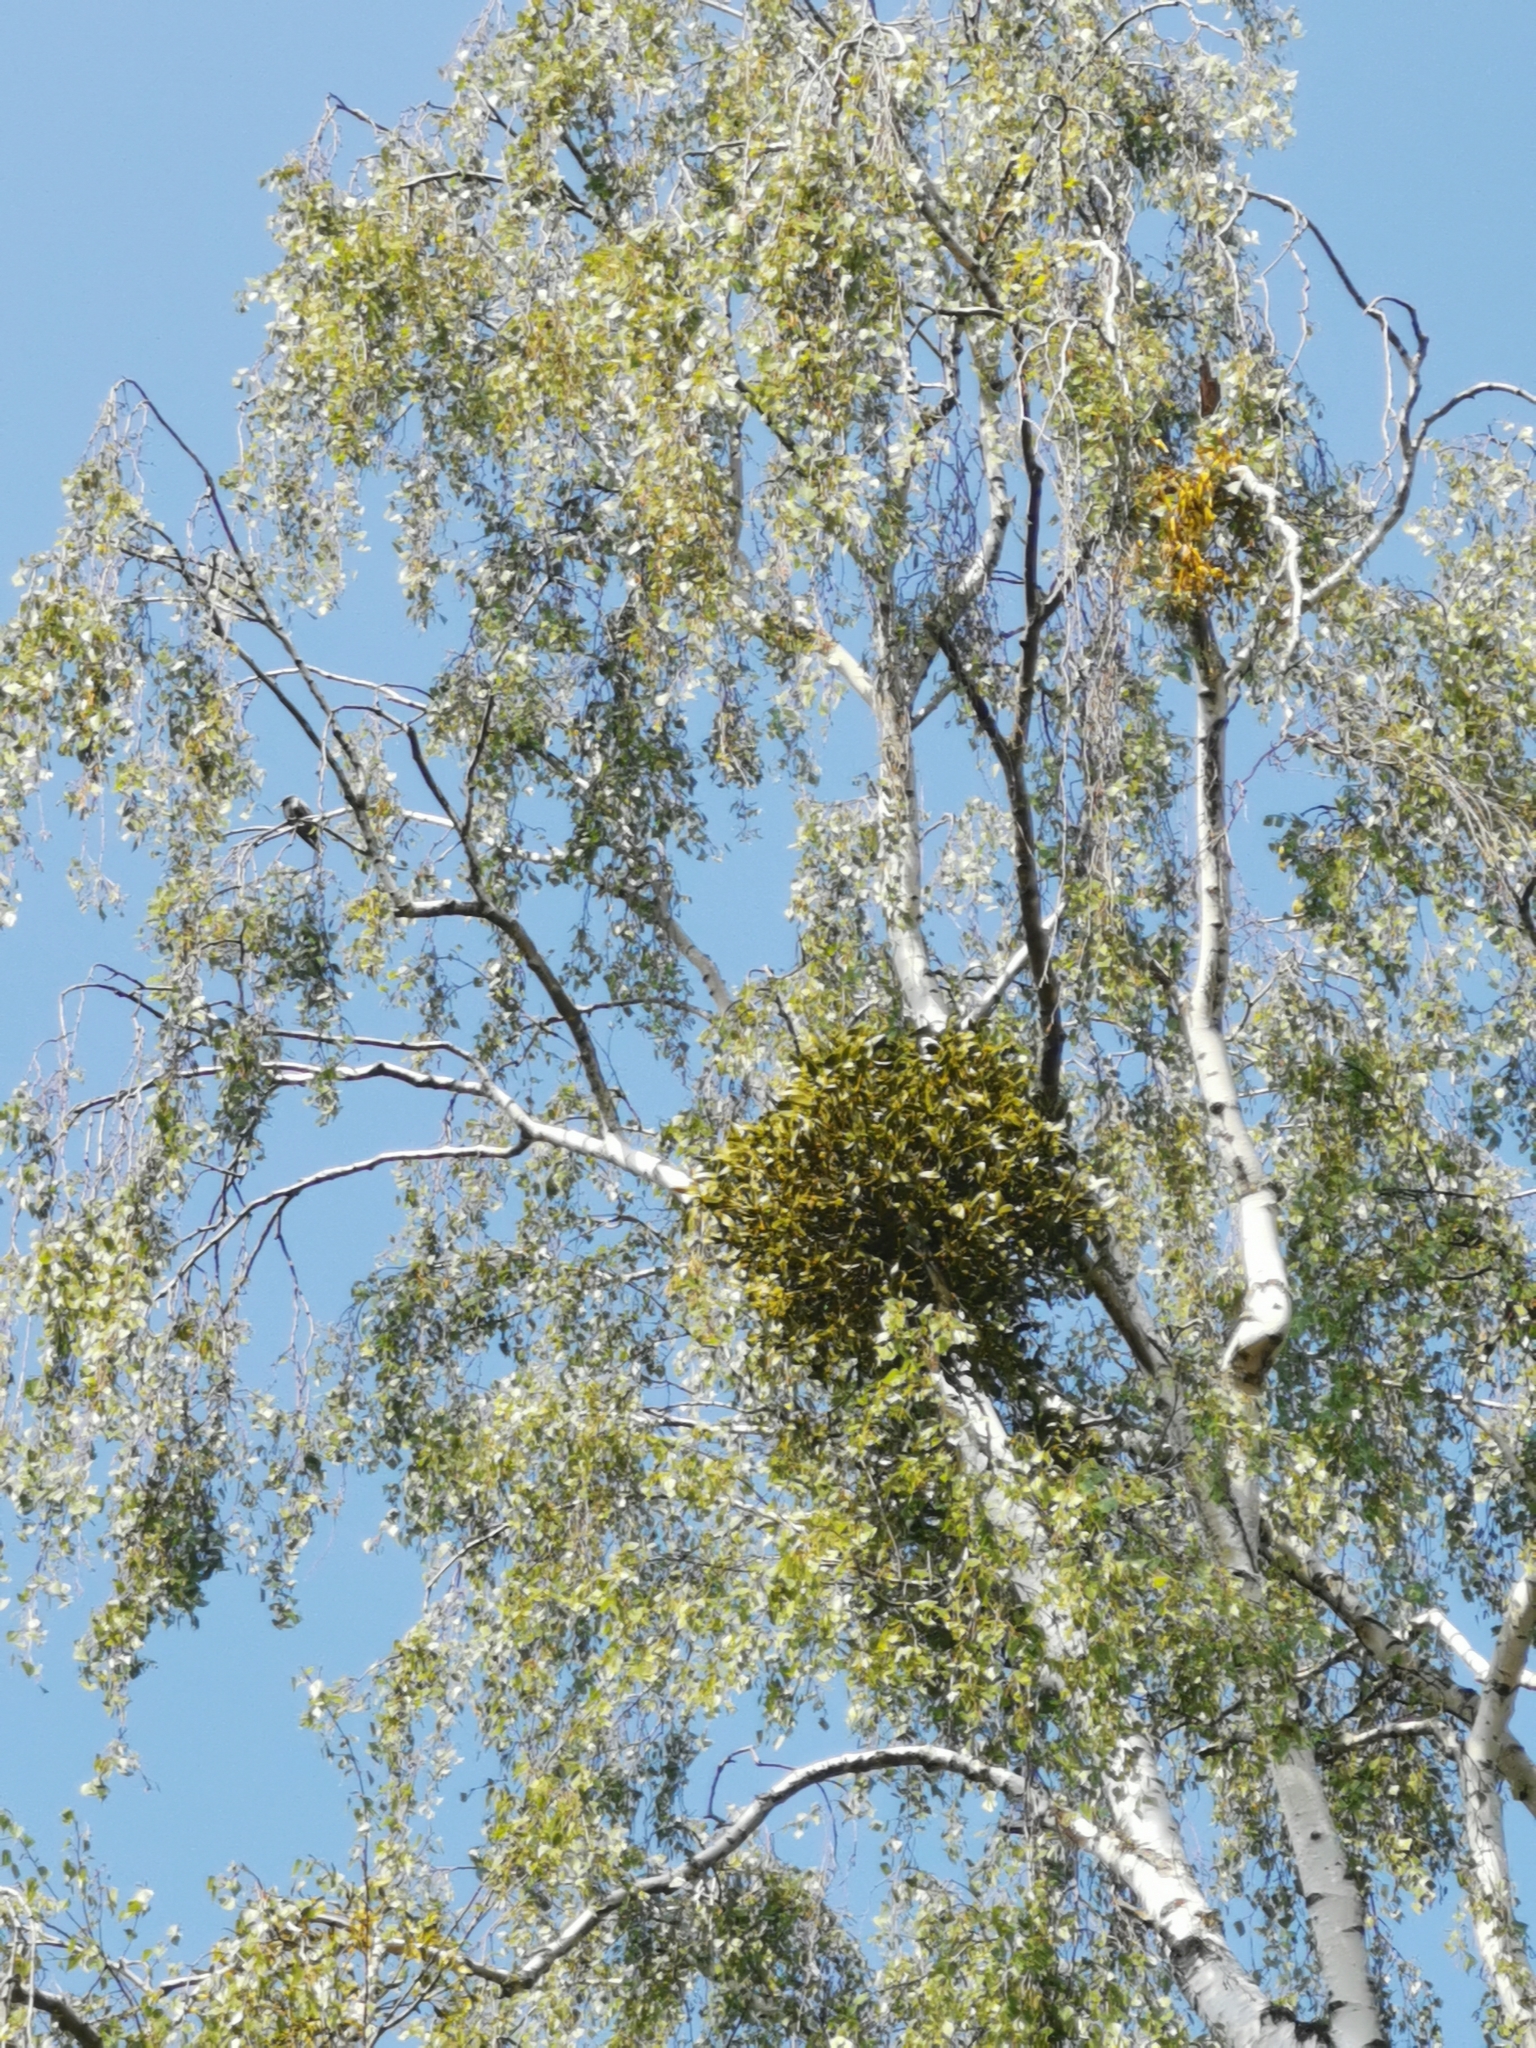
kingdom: Plantae
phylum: Tracheophyta
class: Magnoliopsida
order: Santalales
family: Viscaceae
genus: Viscum
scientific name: Viscum album
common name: Mistletoe
